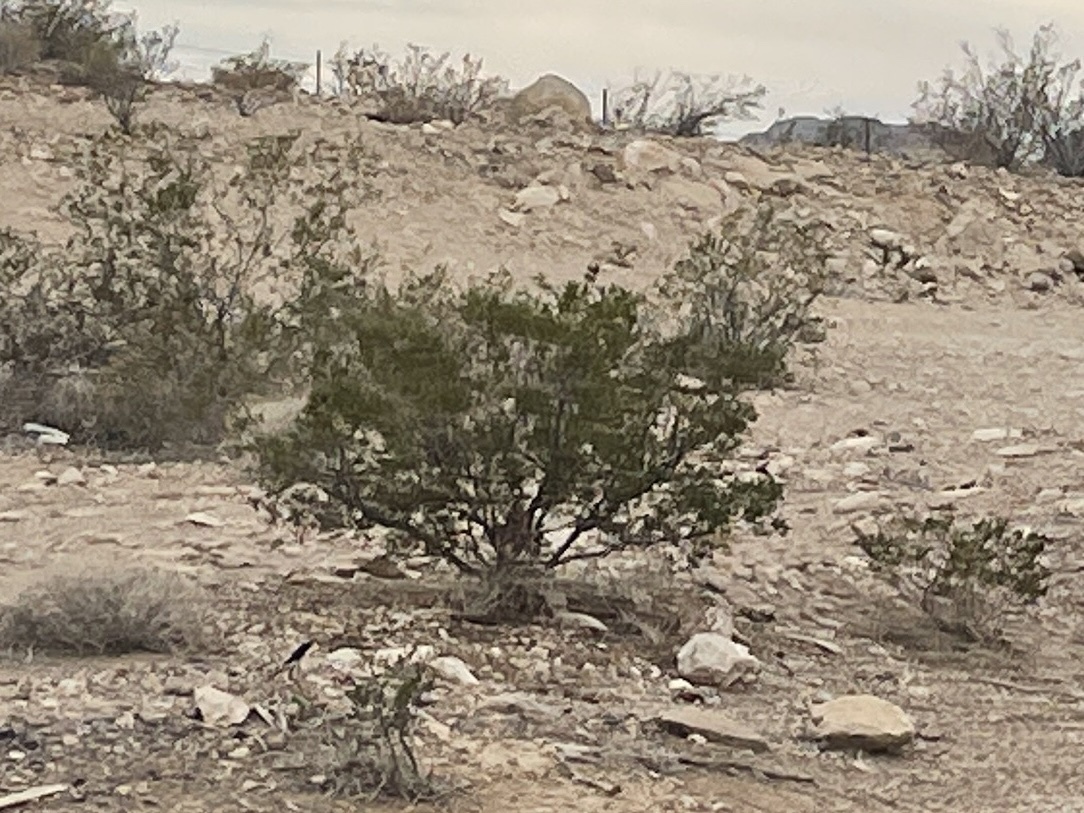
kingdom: Plantae
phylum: Tracheophyta
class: Magnoliopsida
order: Zygophyllales
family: Zygophyllaceae
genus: Larrea
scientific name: Larrea tridentata
